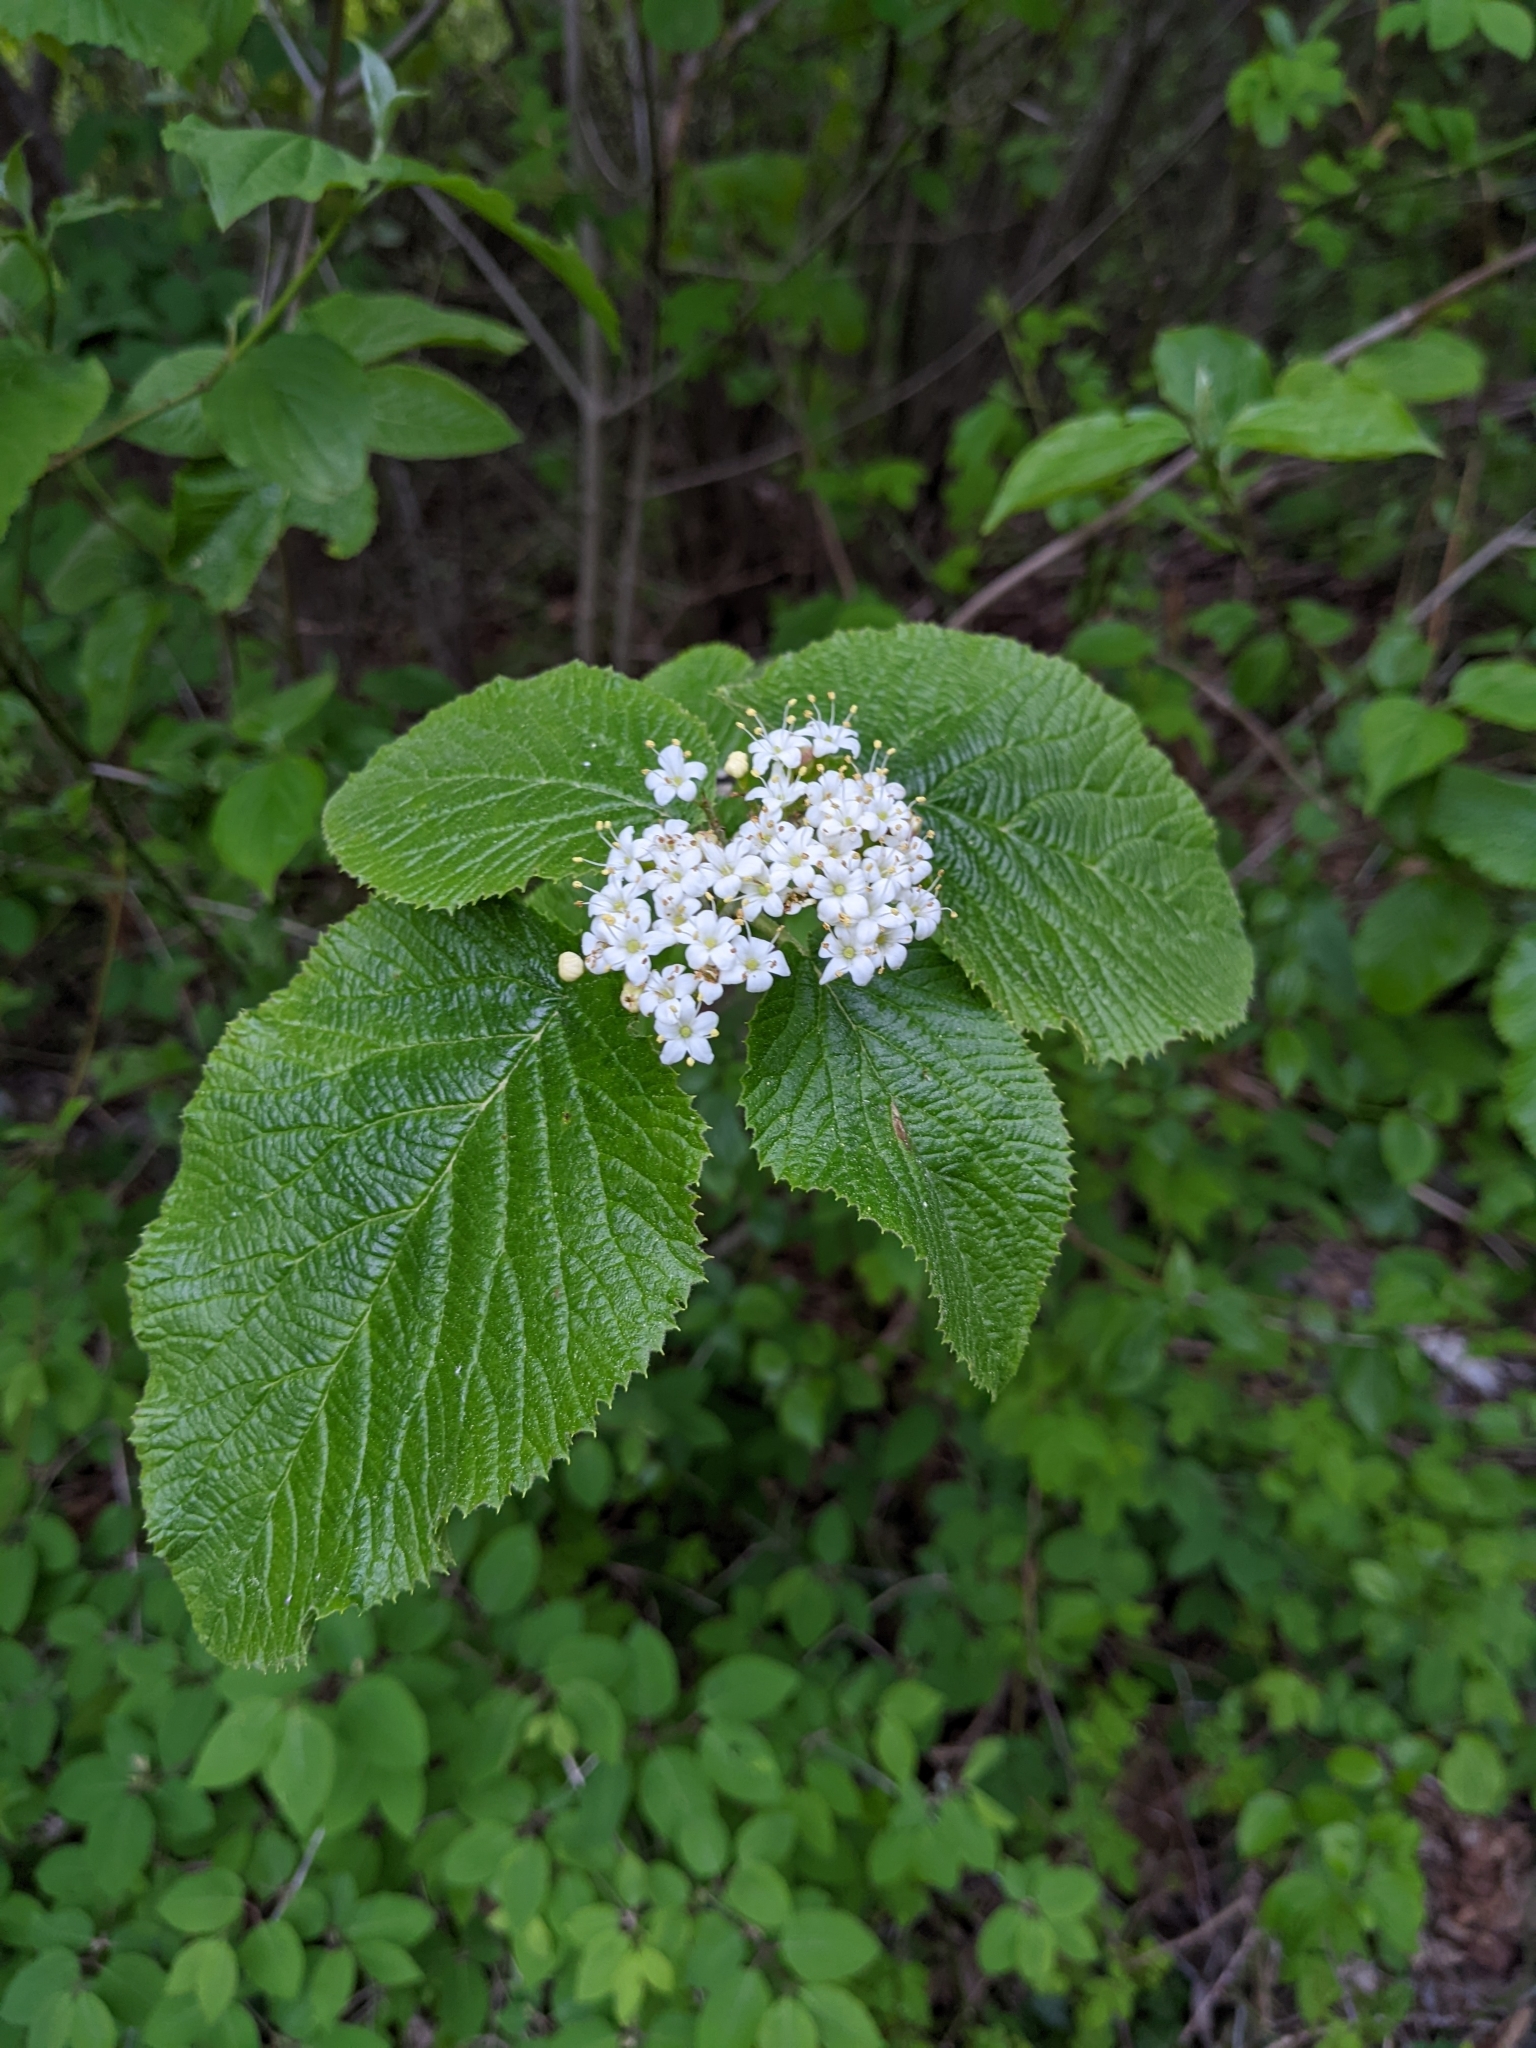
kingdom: Plantae
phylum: Tracheophyta
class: Magnoliopsida
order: Dipsacales
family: Viburnaceae
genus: Viburnum
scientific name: Viburnum lantana
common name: Wayfaring tree
